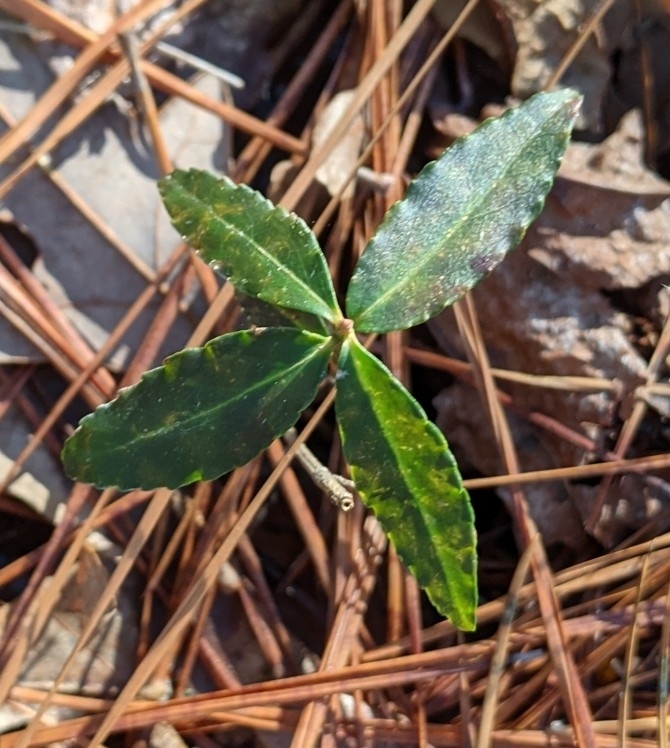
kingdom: Plantae
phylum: Tracheophyta
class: Magnoliopsida
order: Celastrales
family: Celastraceae
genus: Euonymus
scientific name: Euonymus americanus
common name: Bursting-heart
